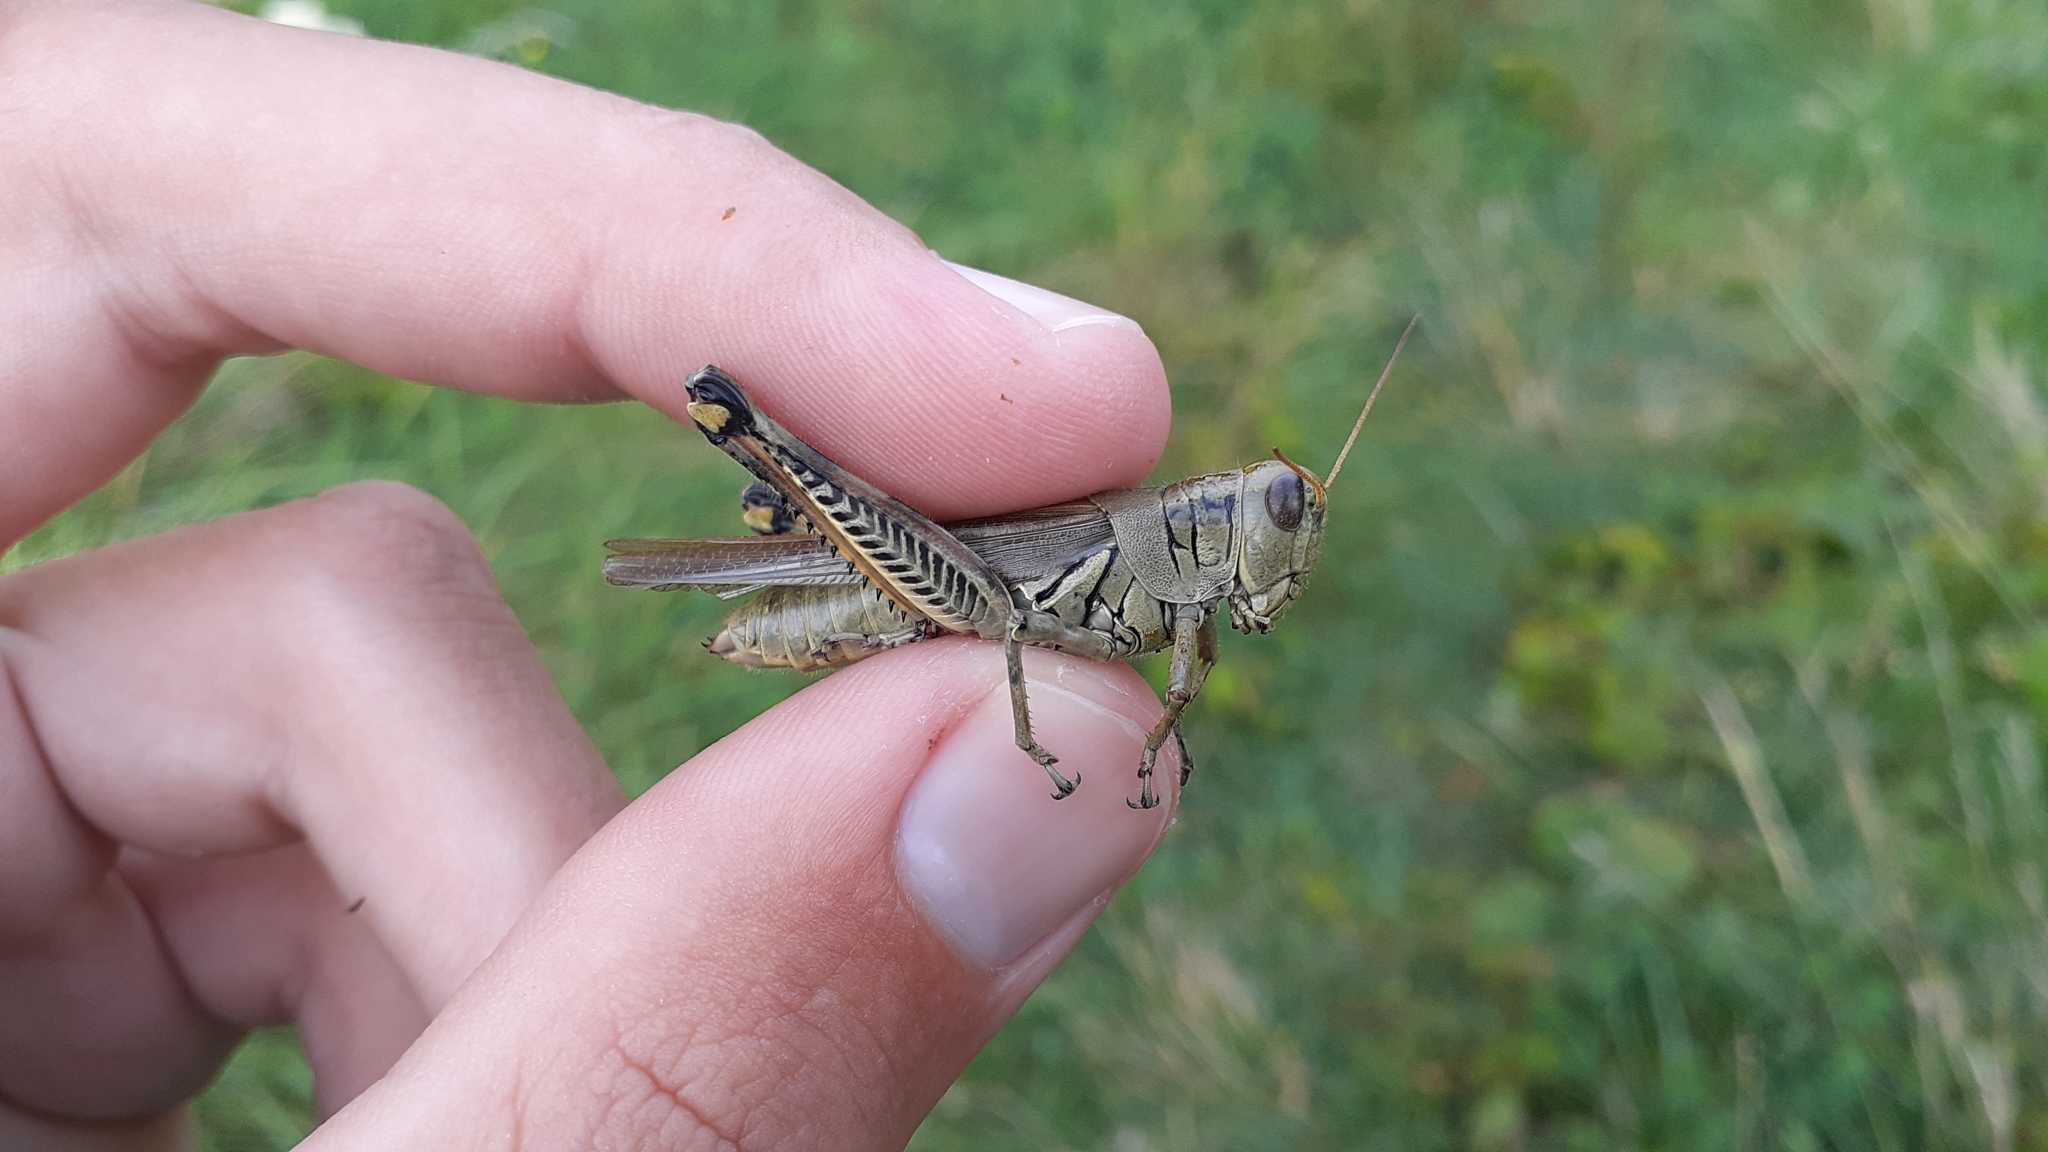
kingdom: Animalia
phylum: Arthropoda
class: Insecta
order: Orthoptera
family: Acrididae
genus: Melanoplus
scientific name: Melanoplus differentialis
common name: Differential grasshopper
